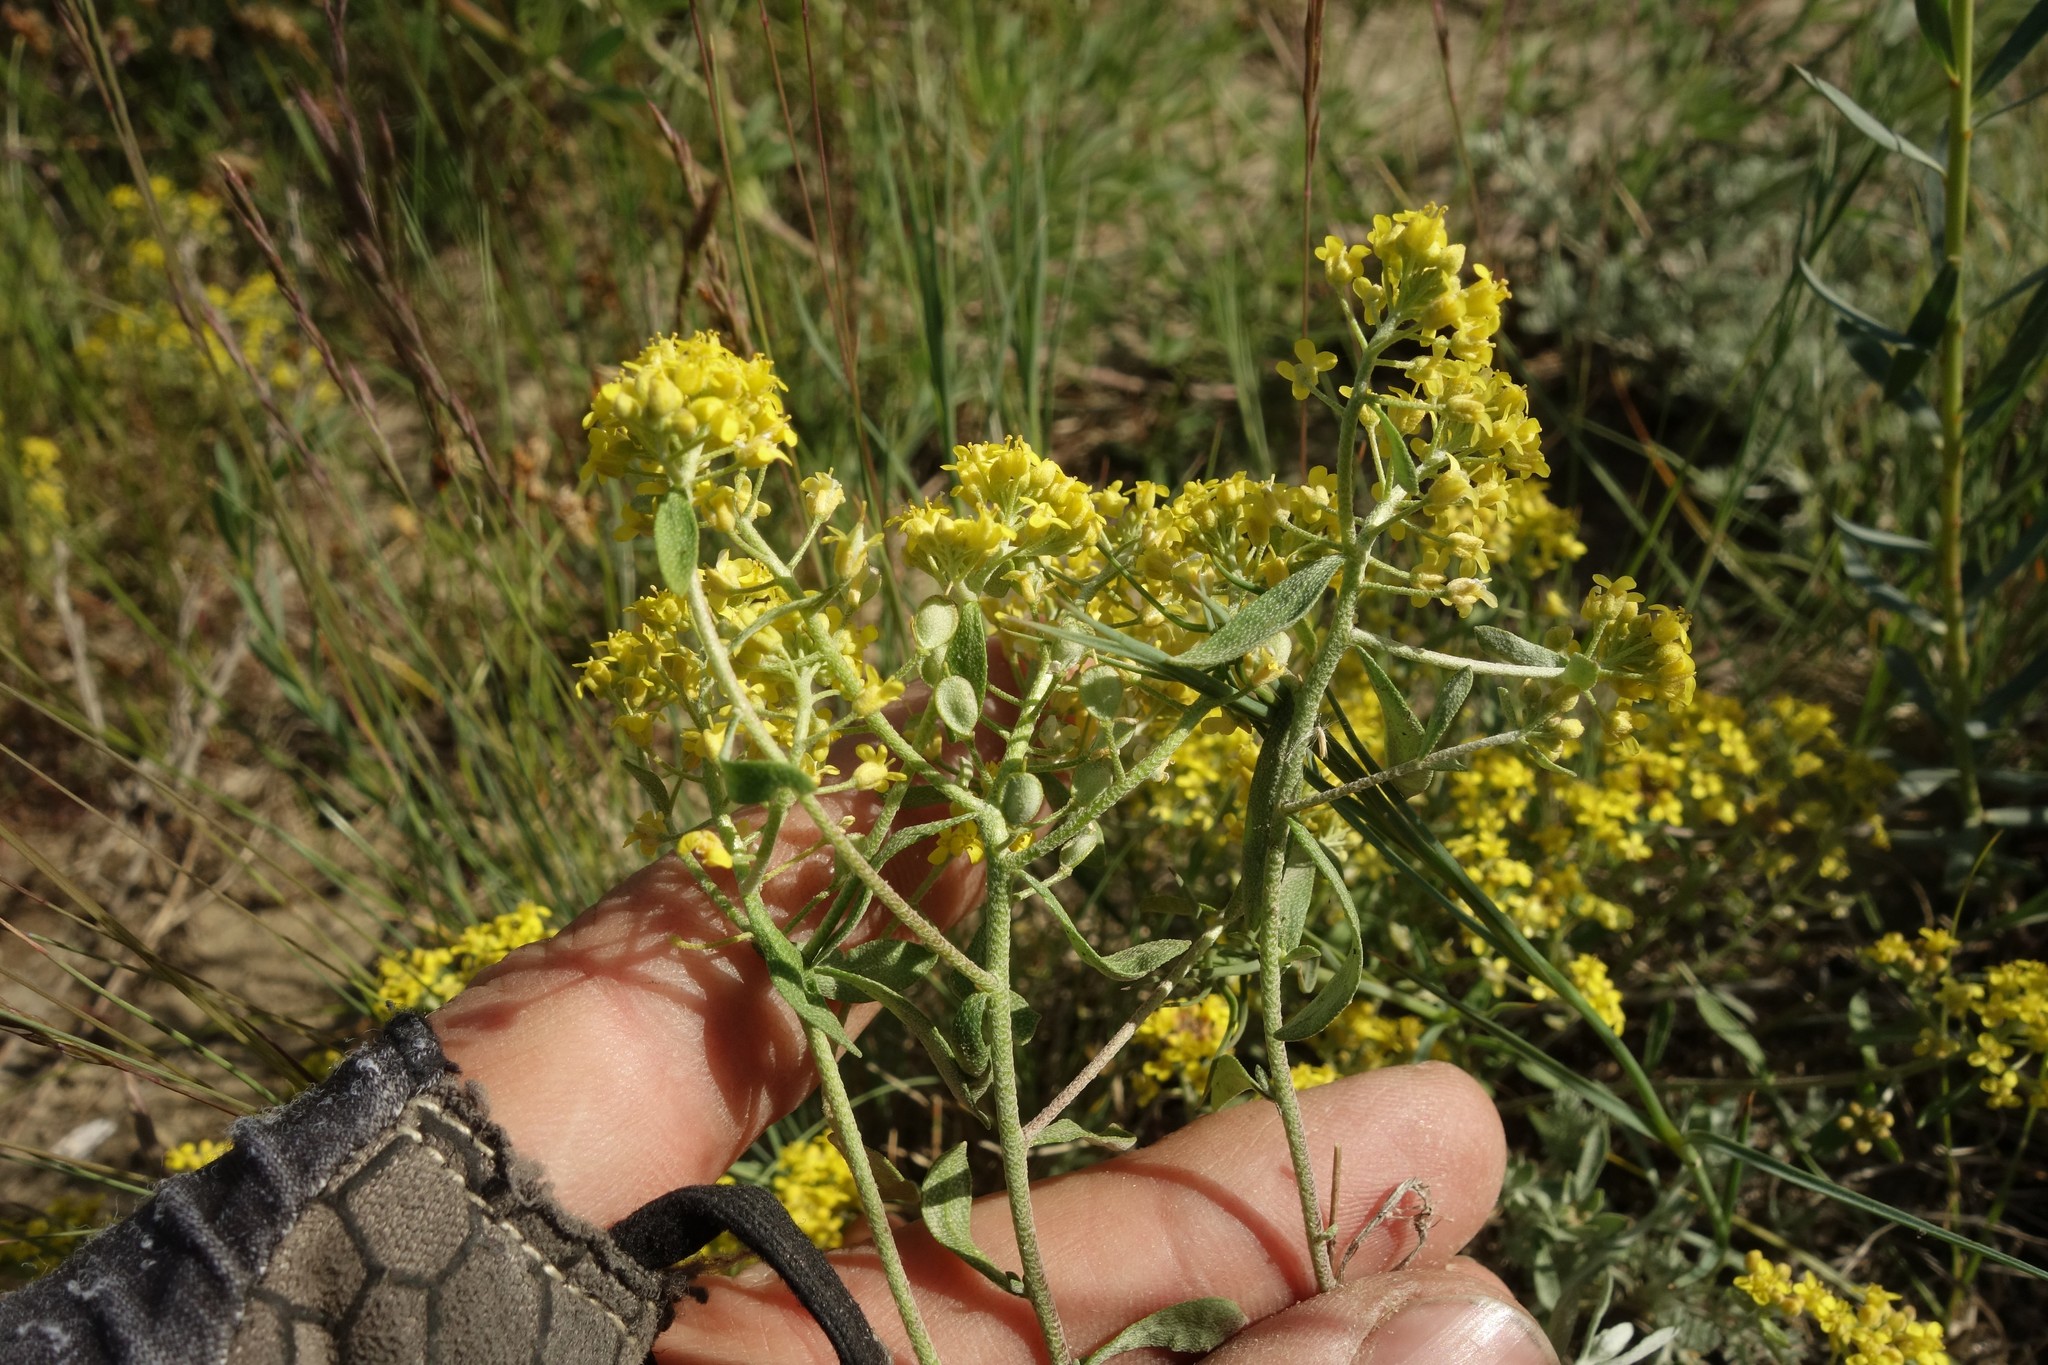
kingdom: Plantae
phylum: Tracheophyta
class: Magnoliopsida
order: Brassicales
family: Brassicaceae
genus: Odontarrhena
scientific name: Odontarrhena tortuosa
